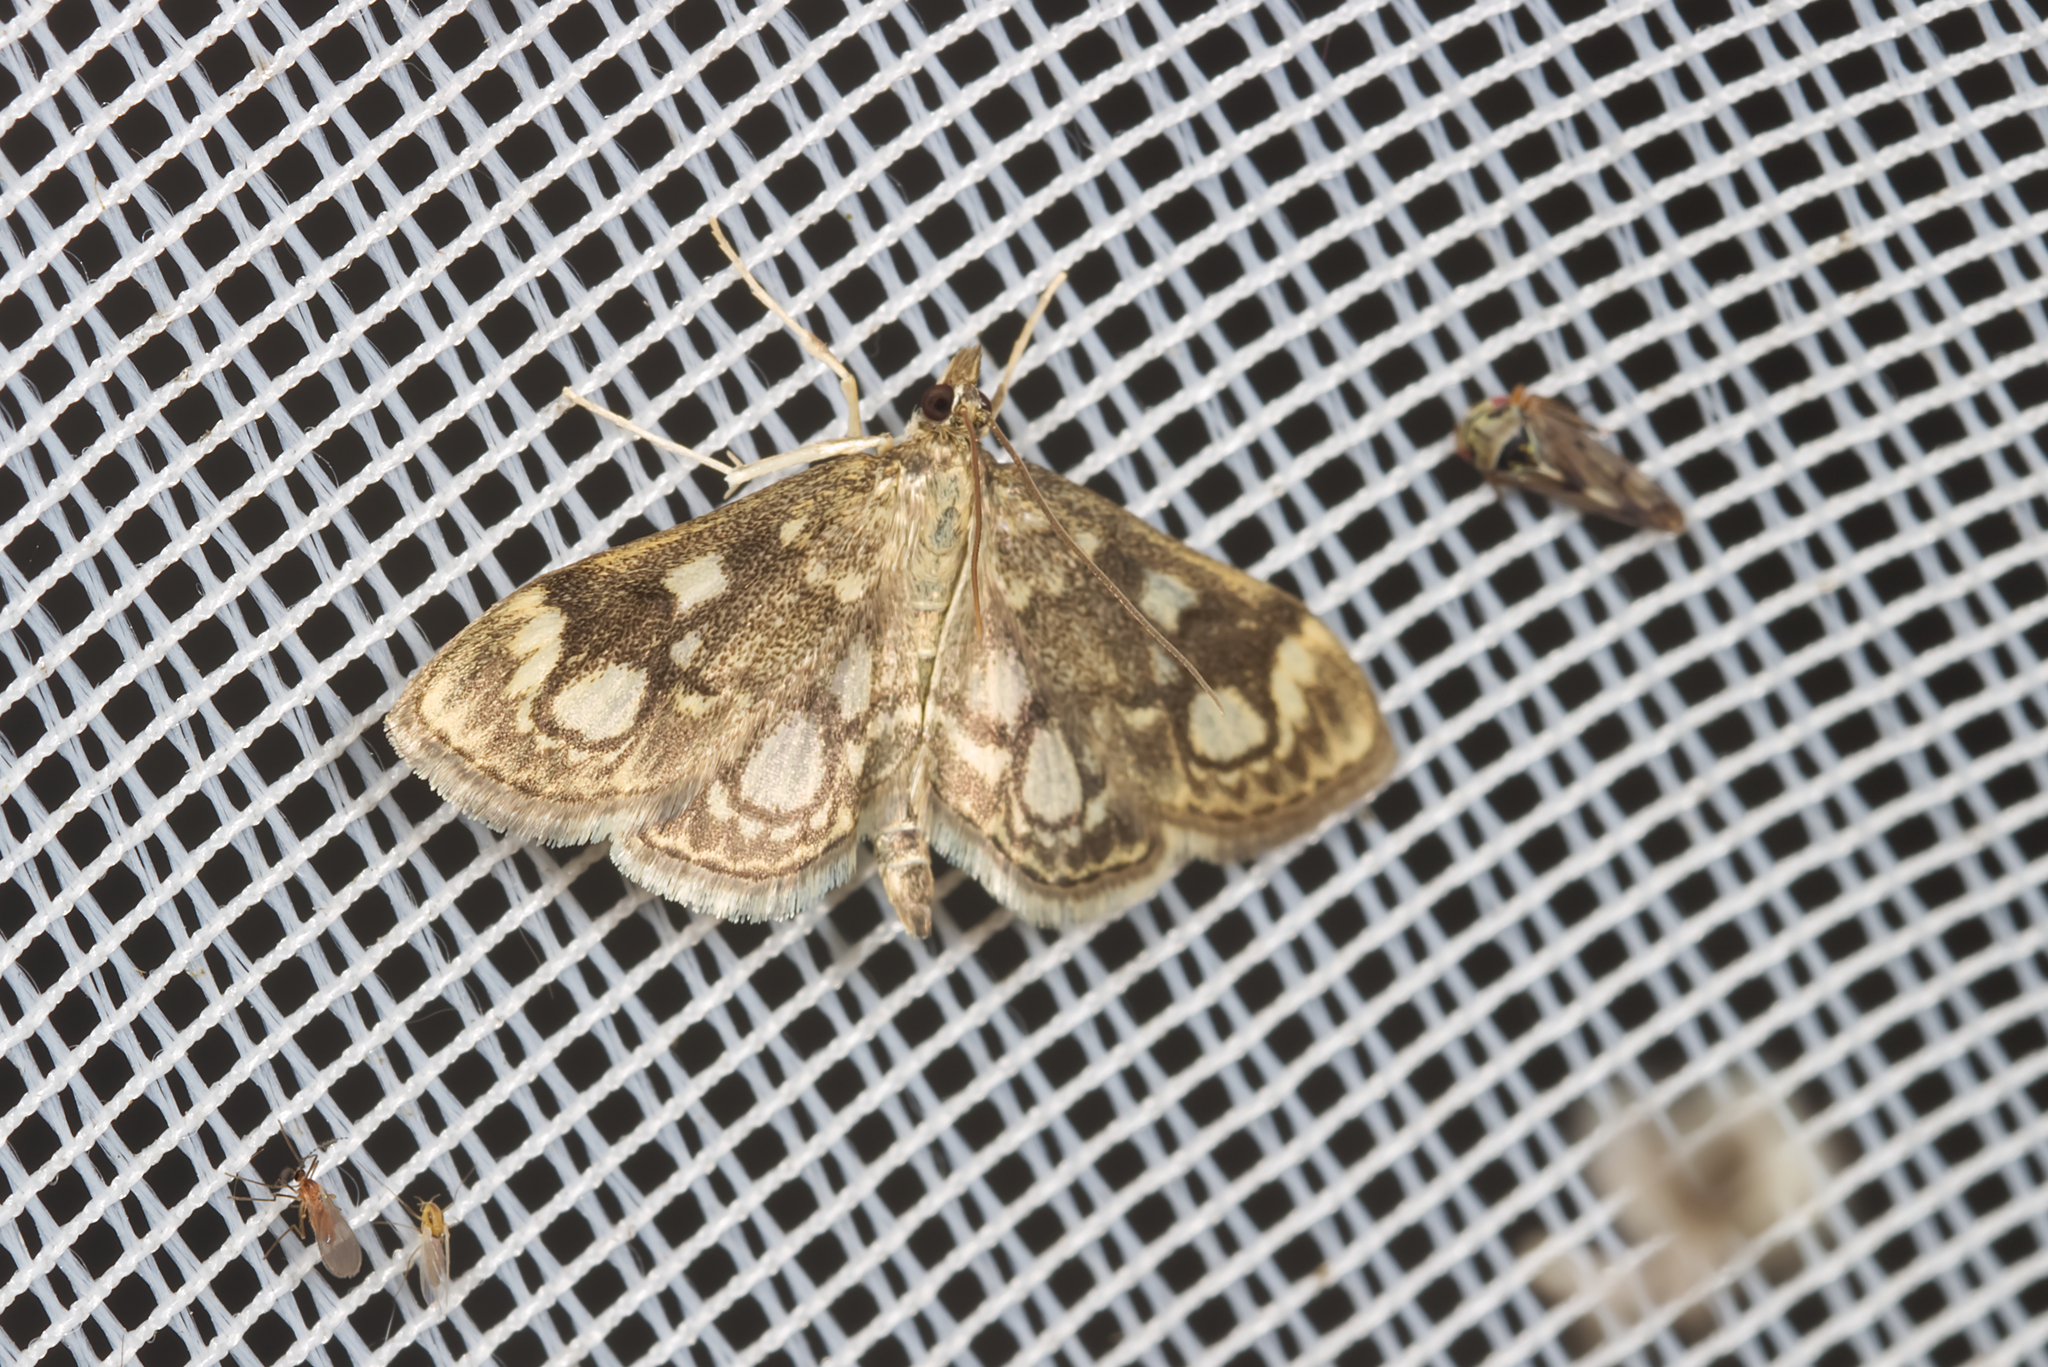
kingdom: Animalia
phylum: Arthropoda
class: Insecta
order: Lepidoptera
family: Crambidae
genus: Anania
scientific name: Anania coronata
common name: Elder pearl
